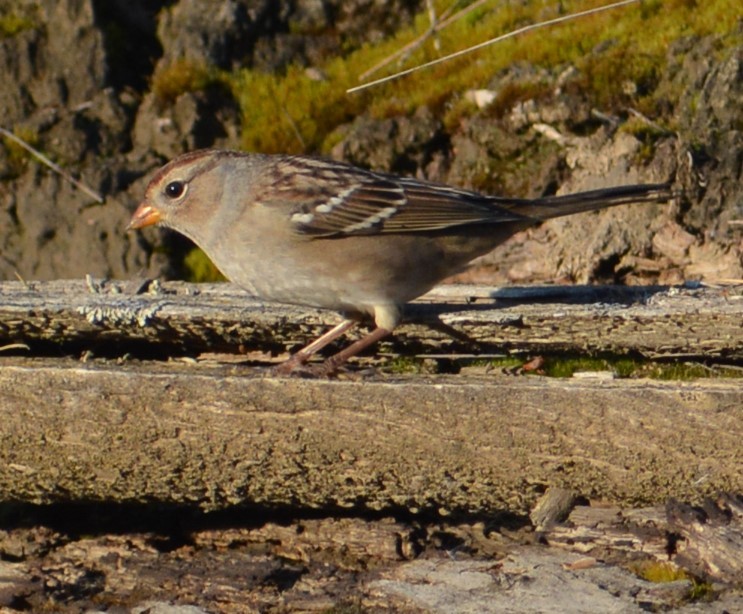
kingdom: Animalia
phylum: Chordata
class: Aves
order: Passeriformes
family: Passerellidae
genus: Zonotrichia
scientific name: Zonotrichia leucophrys
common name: White-crowned sparrow
